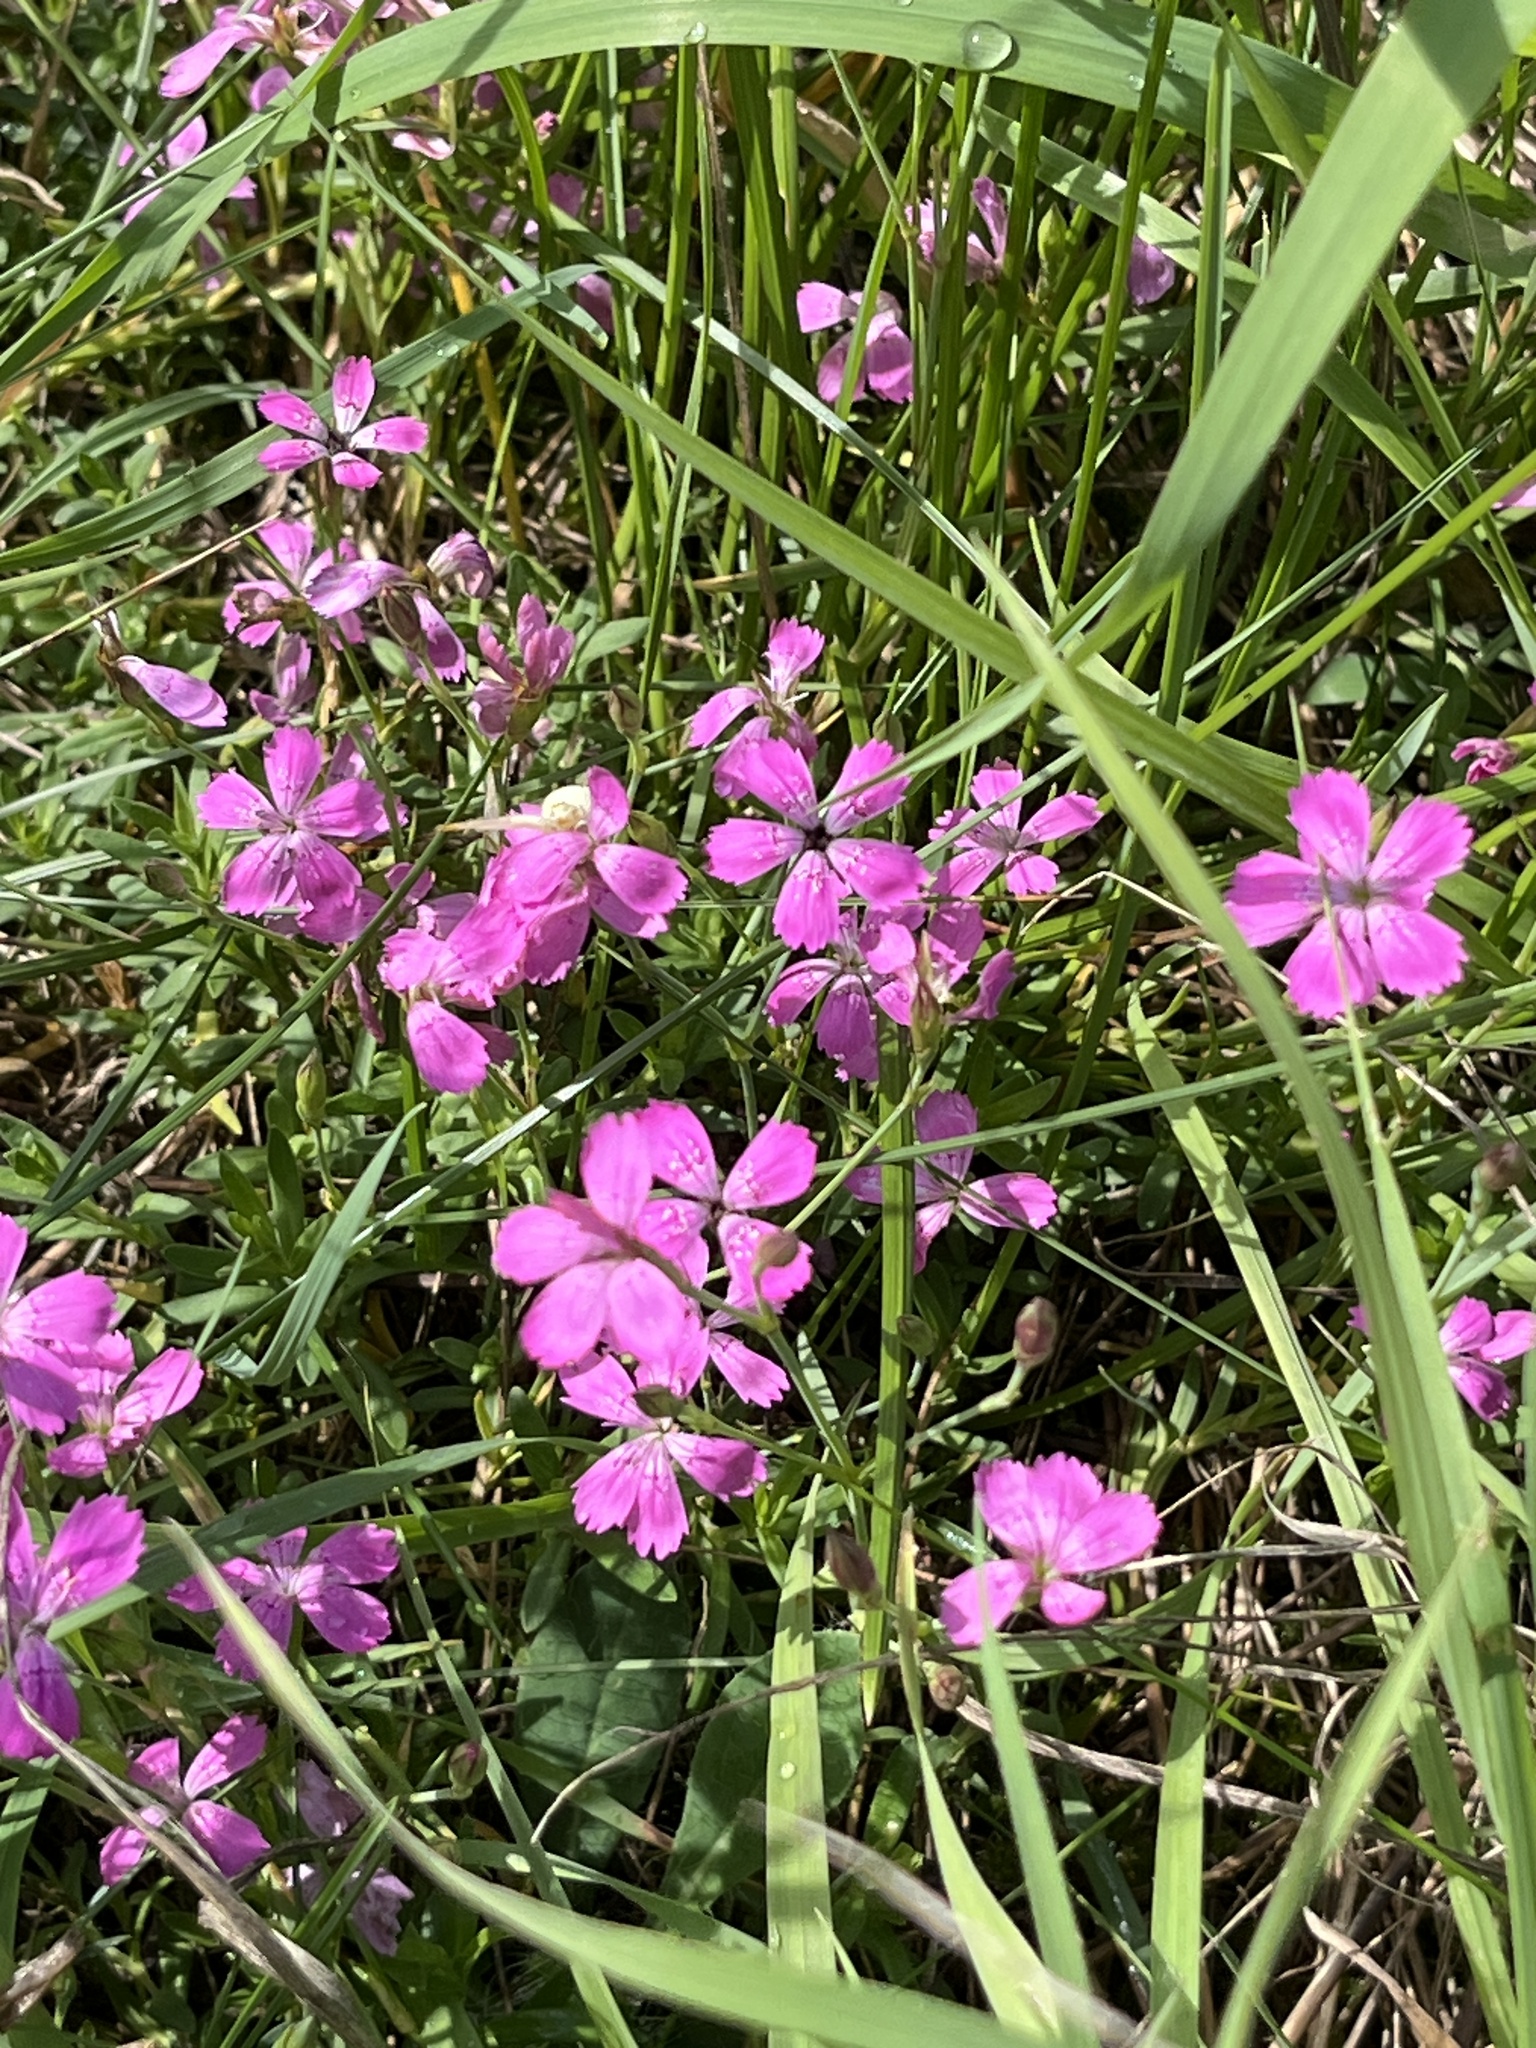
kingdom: Plantae
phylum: Tracheophyta
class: Magnoliopsida
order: Caryophyllales
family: Caryophyllaceae
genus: Dianthus
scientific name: Dianthus deltoides
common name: Maiden pink
